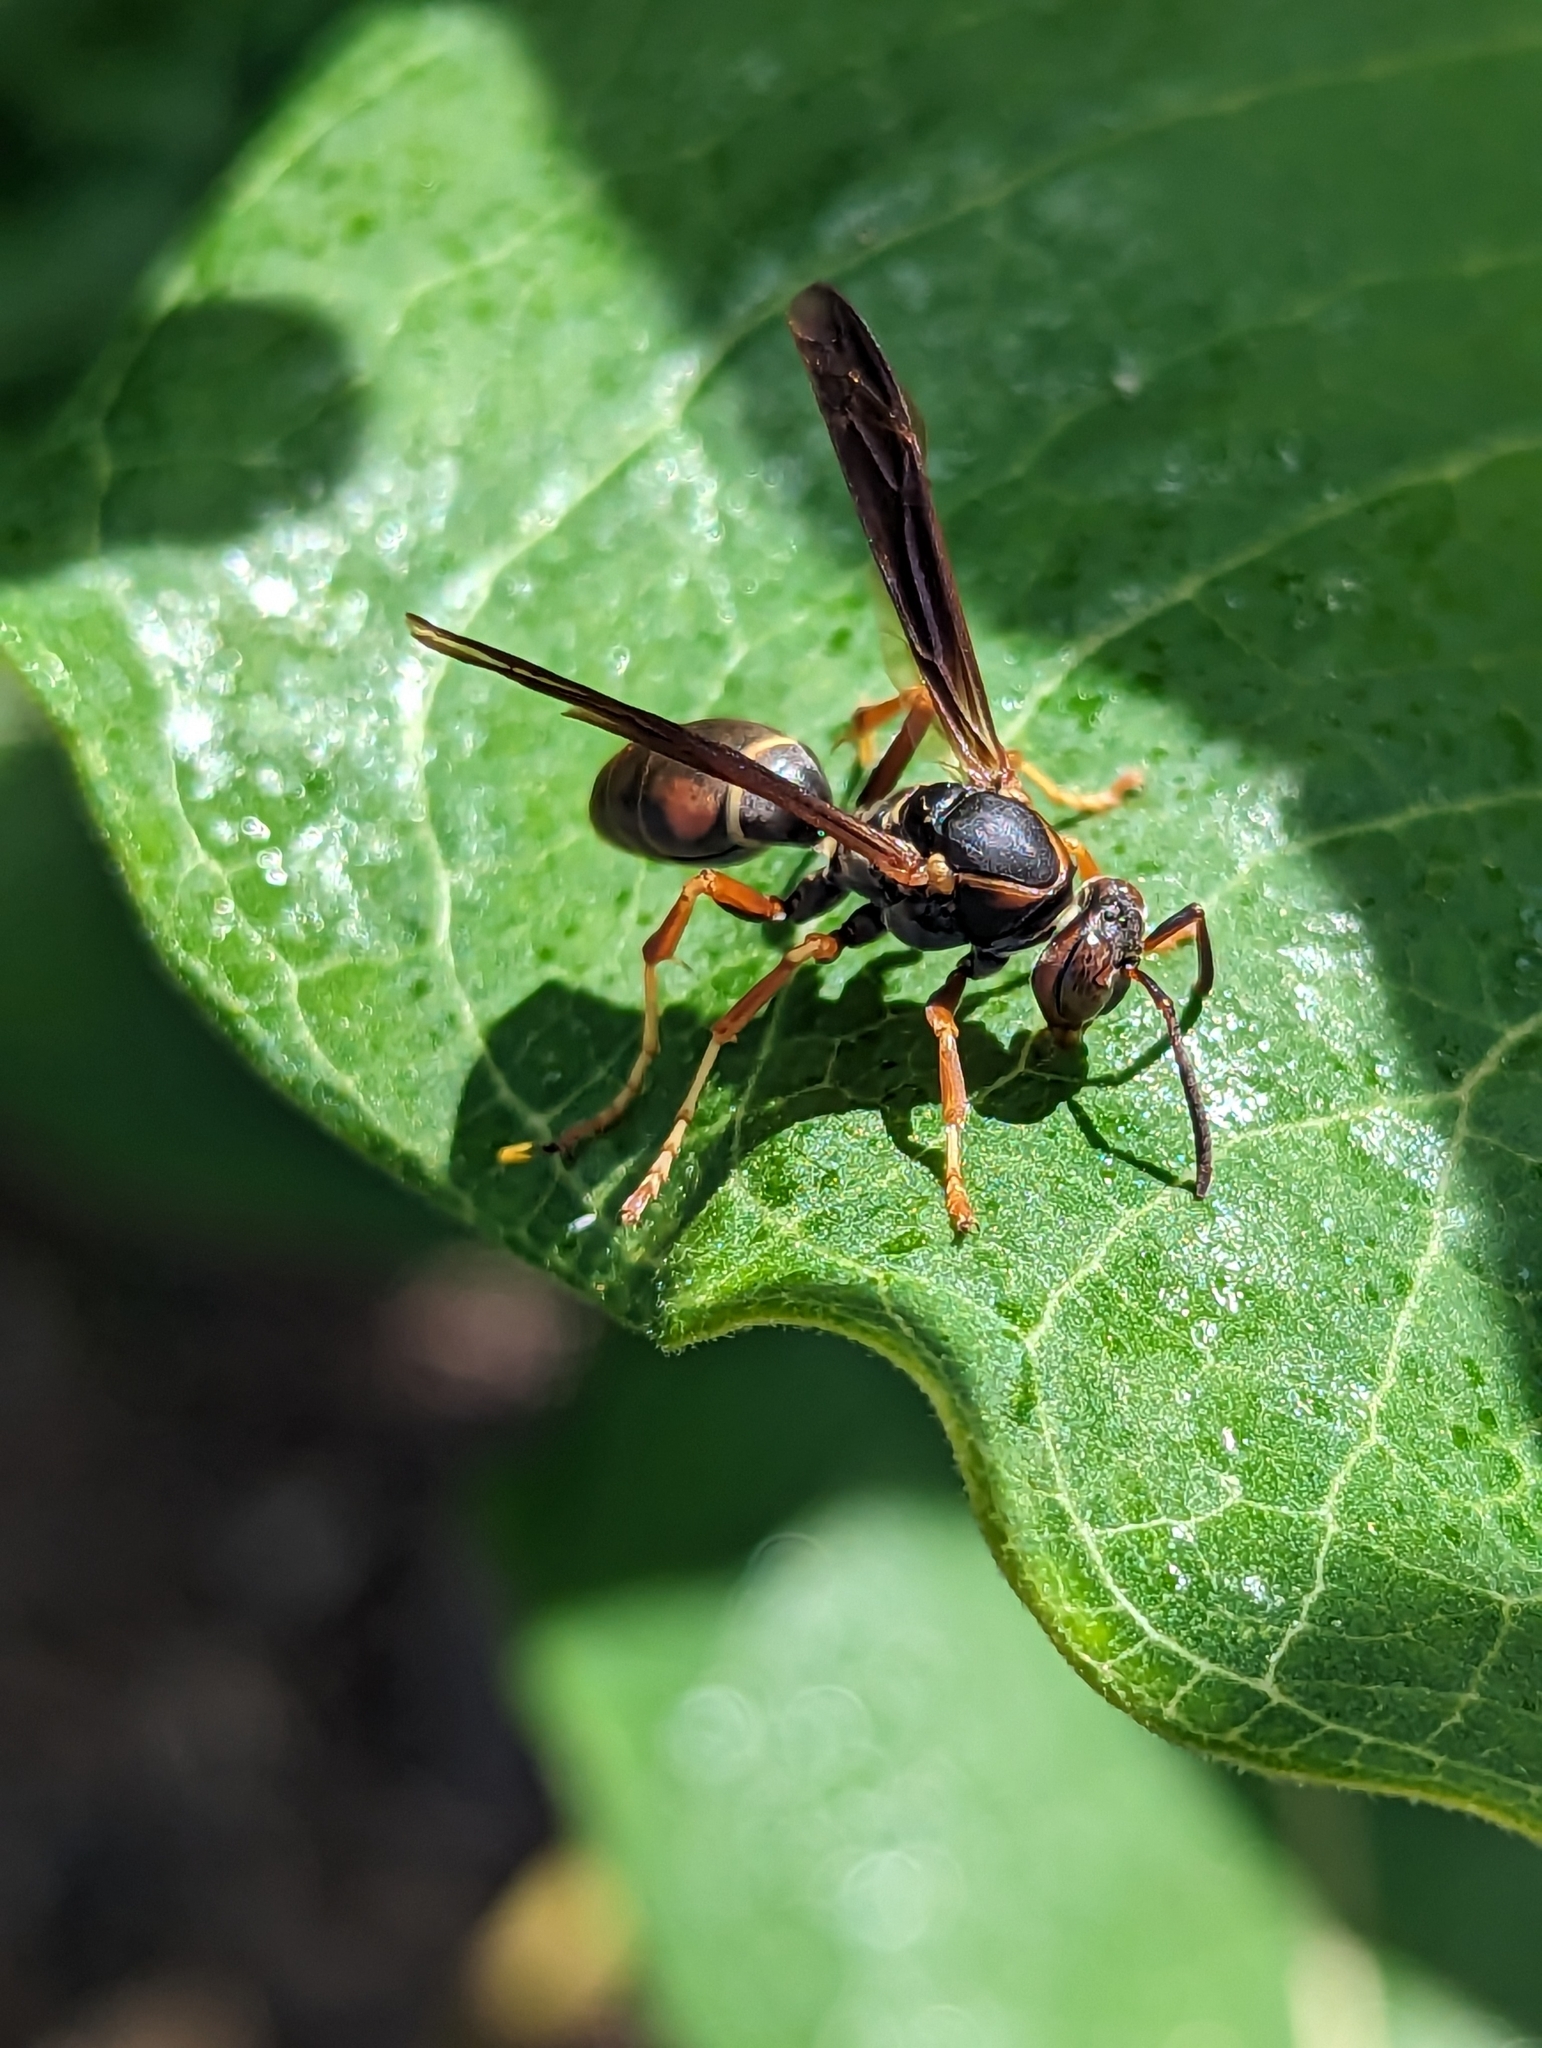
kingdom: Animalia
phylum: Arthropoda
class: Insecta
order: Hymenoptera
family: Eumenidae
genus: Polistes
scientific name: Polistes fuscatus
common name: Dark paper wasp
